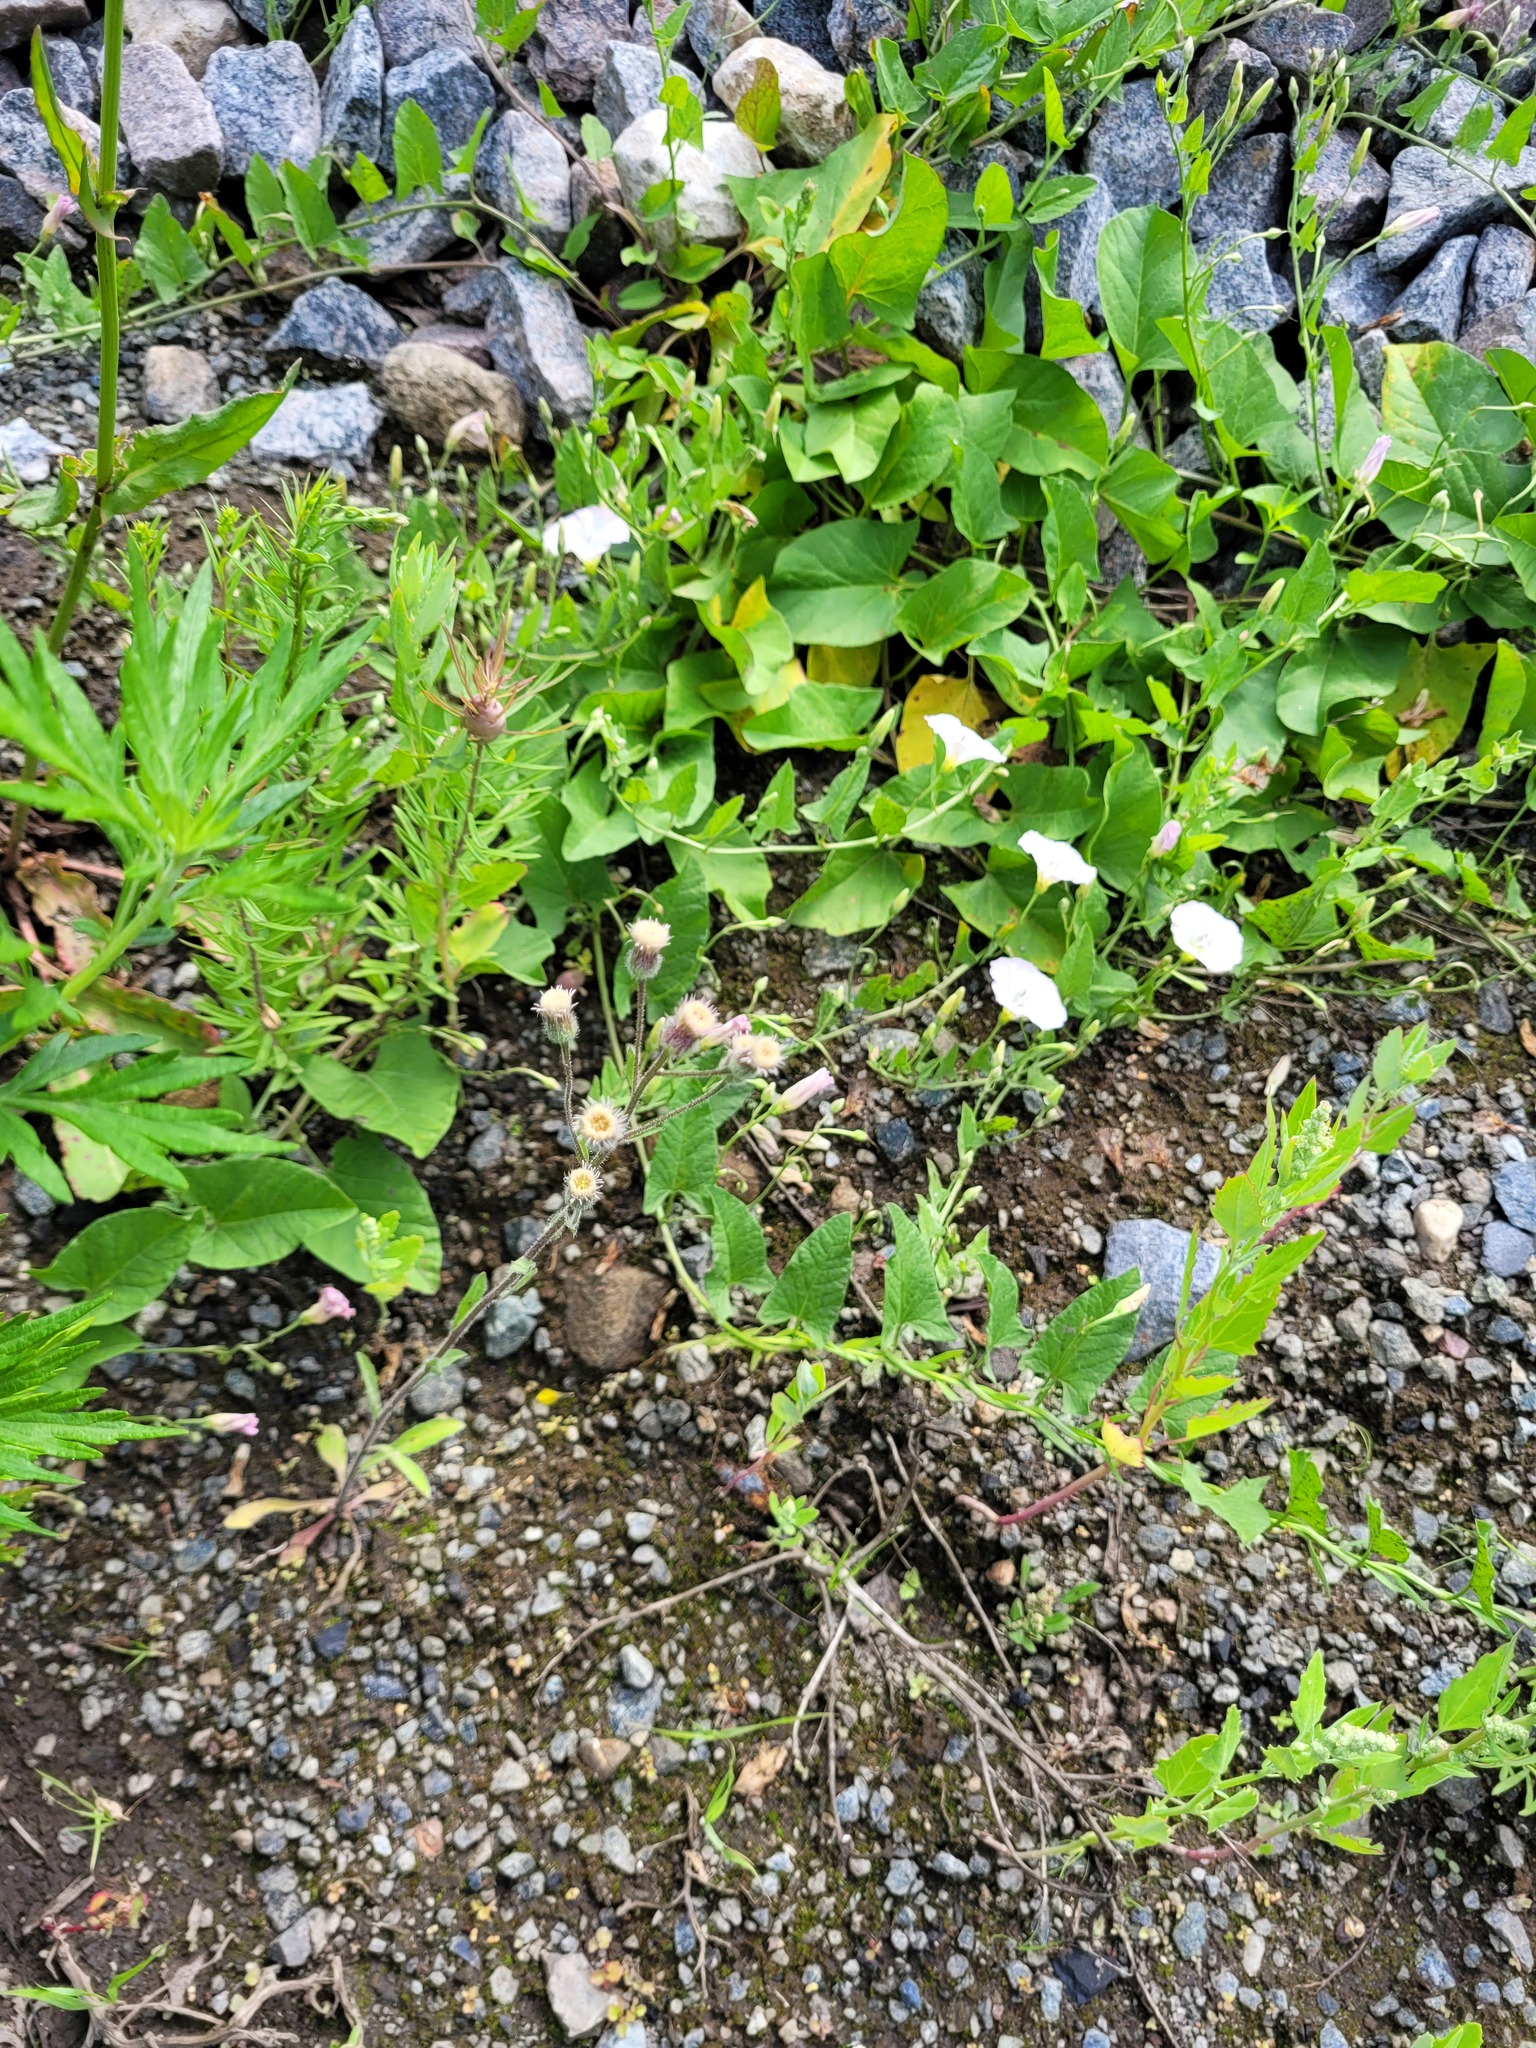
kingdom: Plantae
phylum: Tracheophyta
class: Magnoliopsida
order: Asterales
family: Asteraceae
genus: Erigeron
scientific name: Erigeron acris
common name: Blue fleabane
